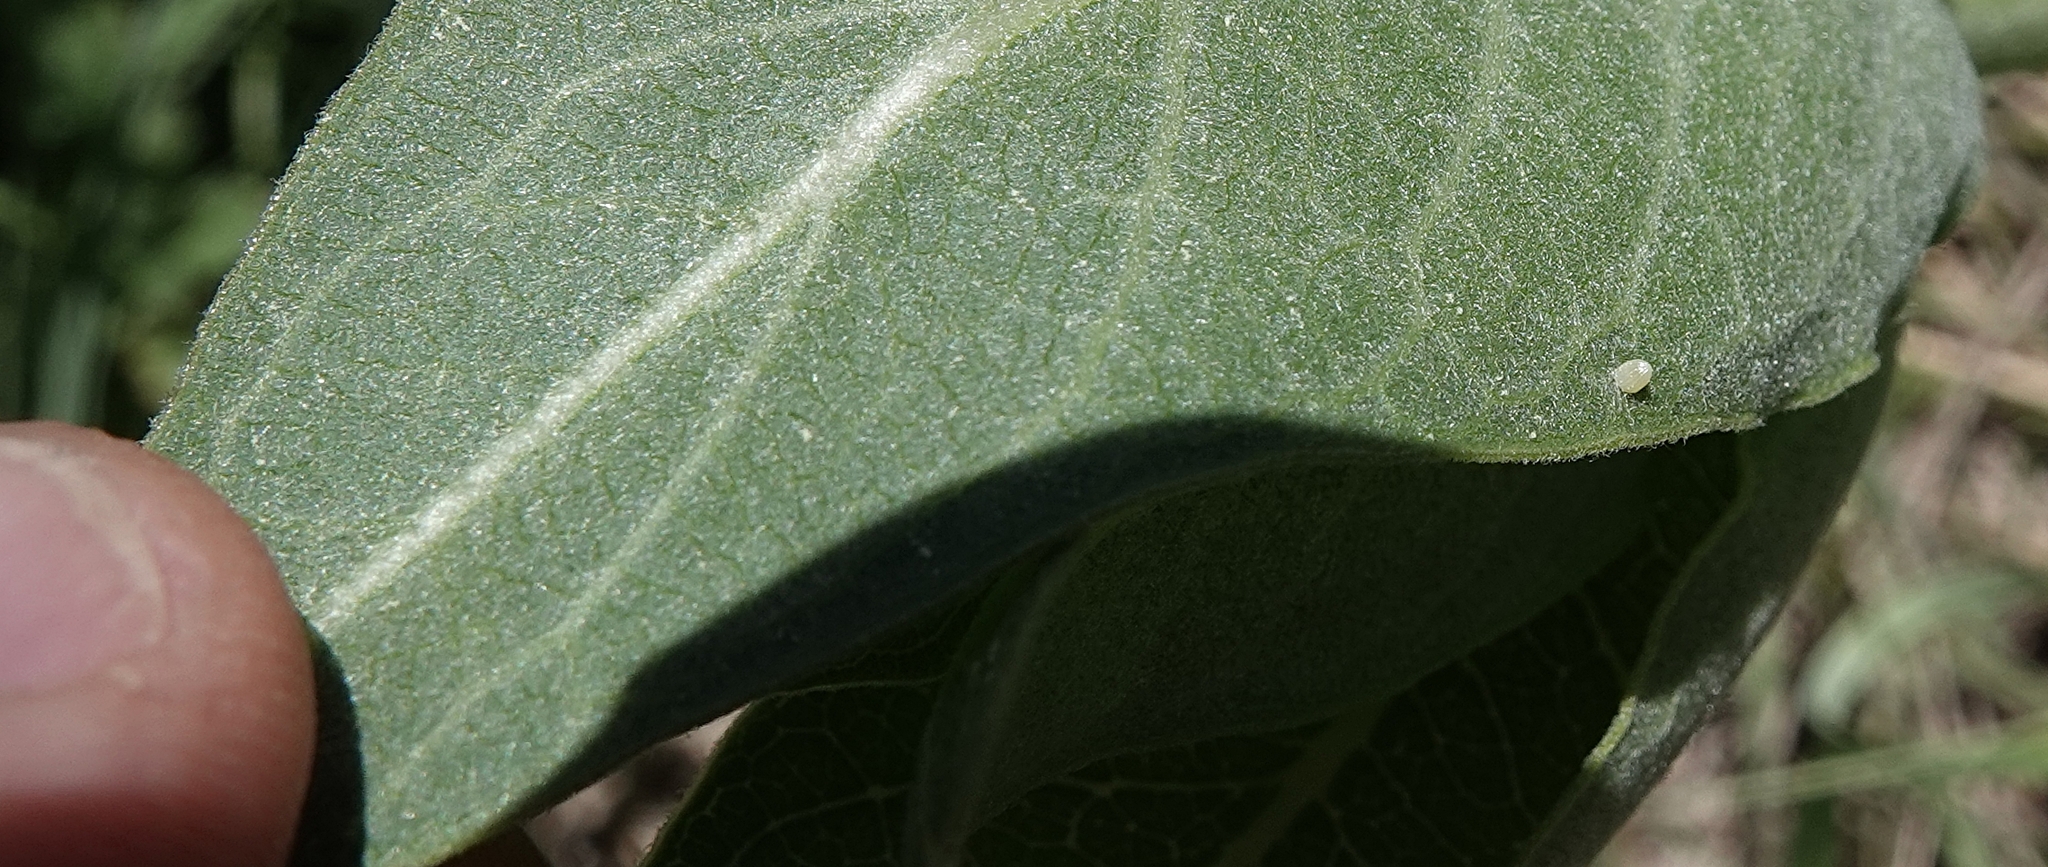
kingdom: Animalia
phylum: Arthropoda
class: Insecta
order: Lepidoptera
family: Nymphalidae
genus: Danaus
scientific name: Danaus plexippus
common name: Monarch
